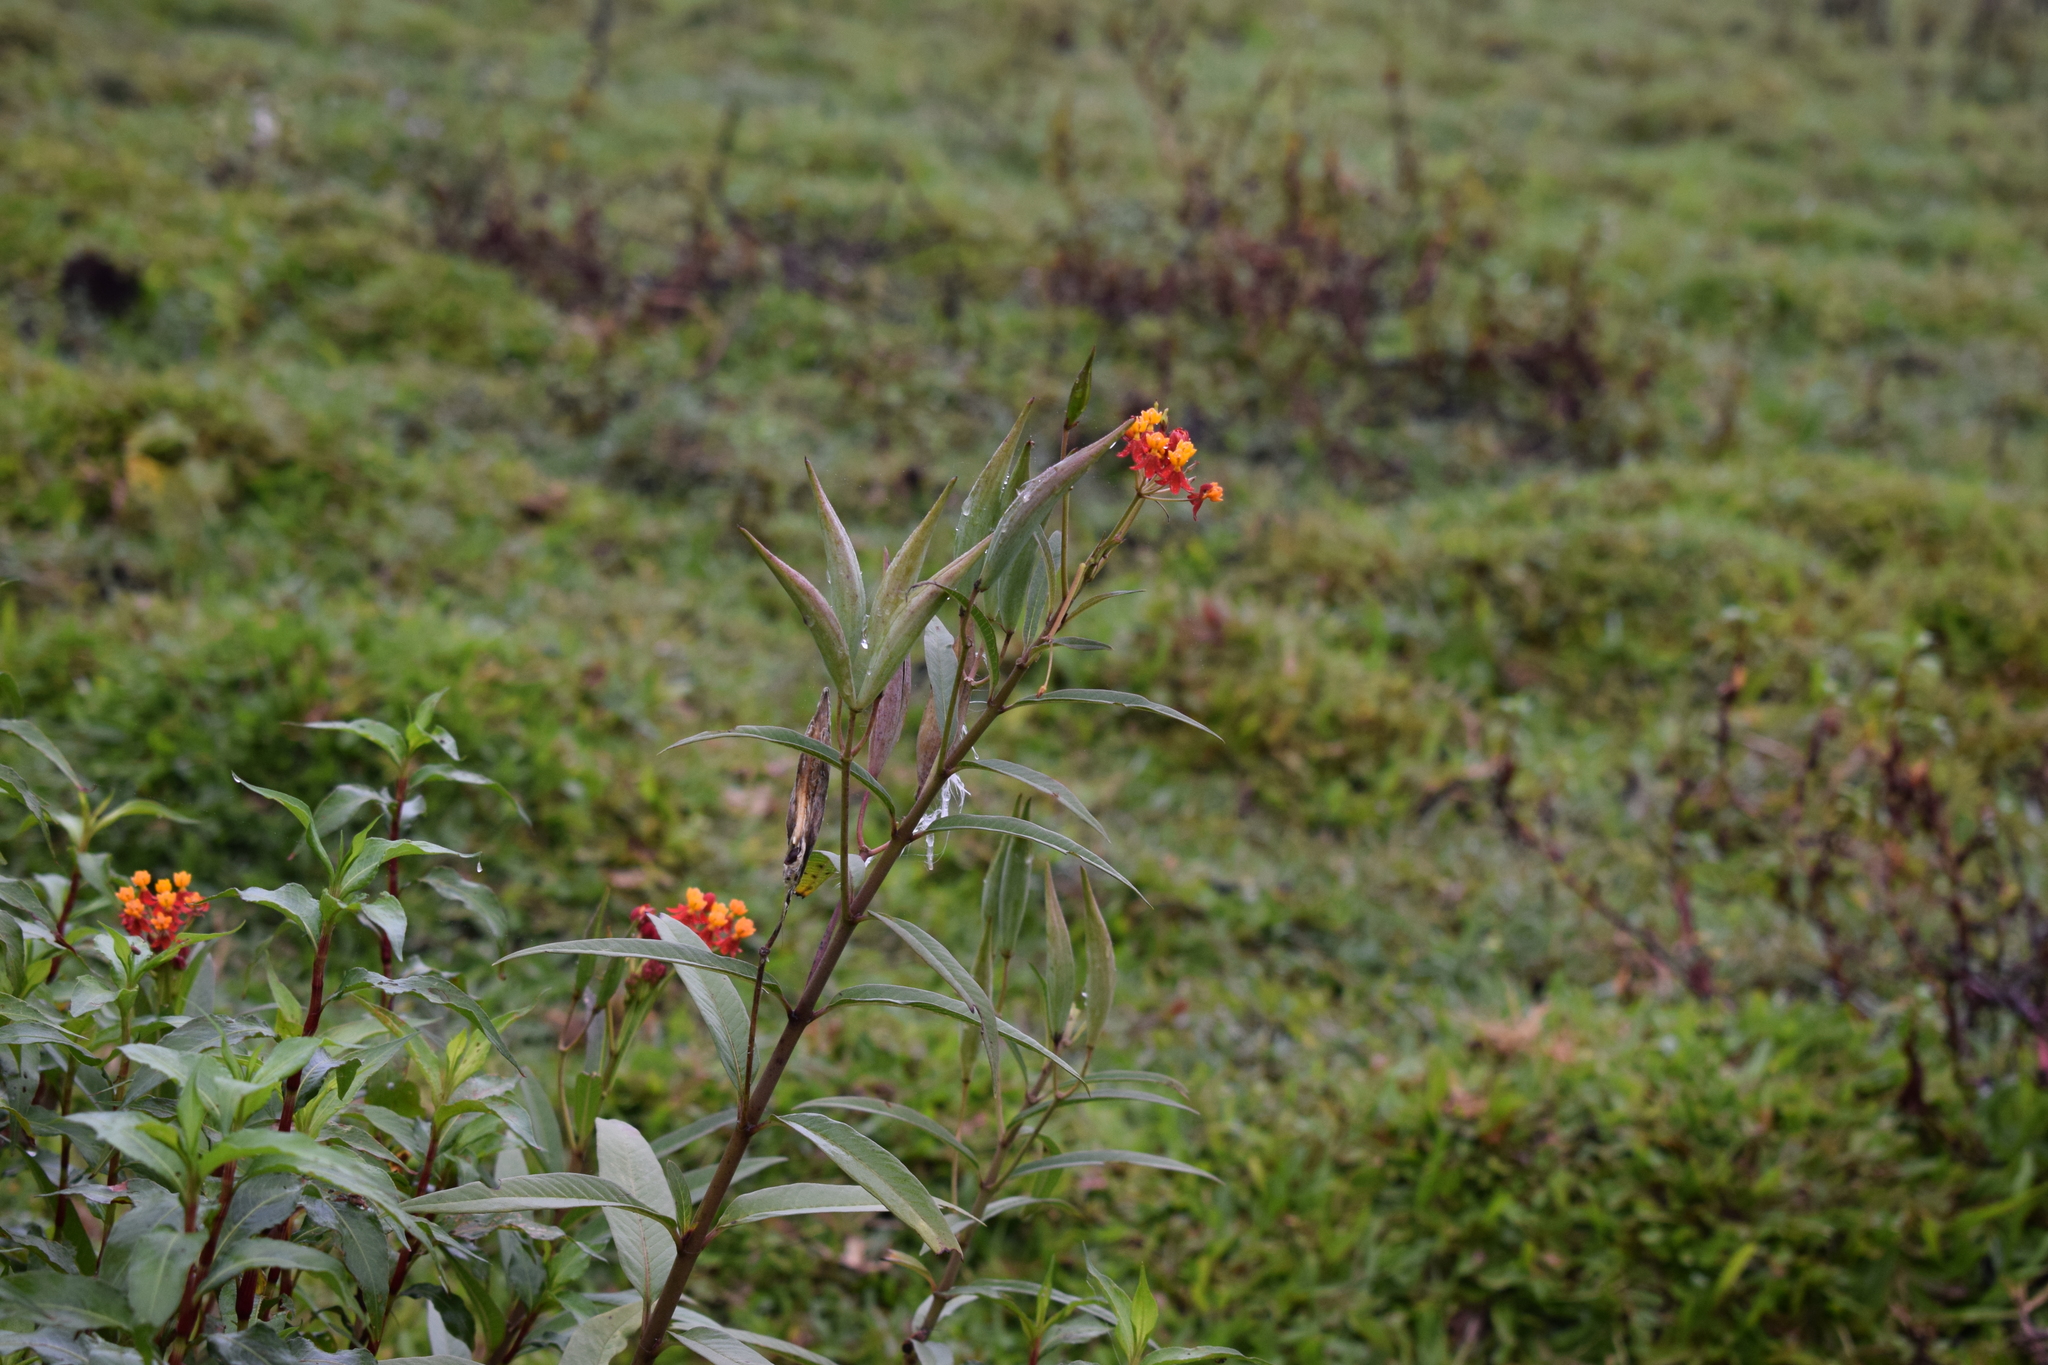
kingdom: Plantae
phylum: Tracheophyta
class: Magnoliopsida
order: Gentianales
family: Apocynaceae
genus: Asclepias
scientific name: Asclepias curassavica
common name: Bloodflower
